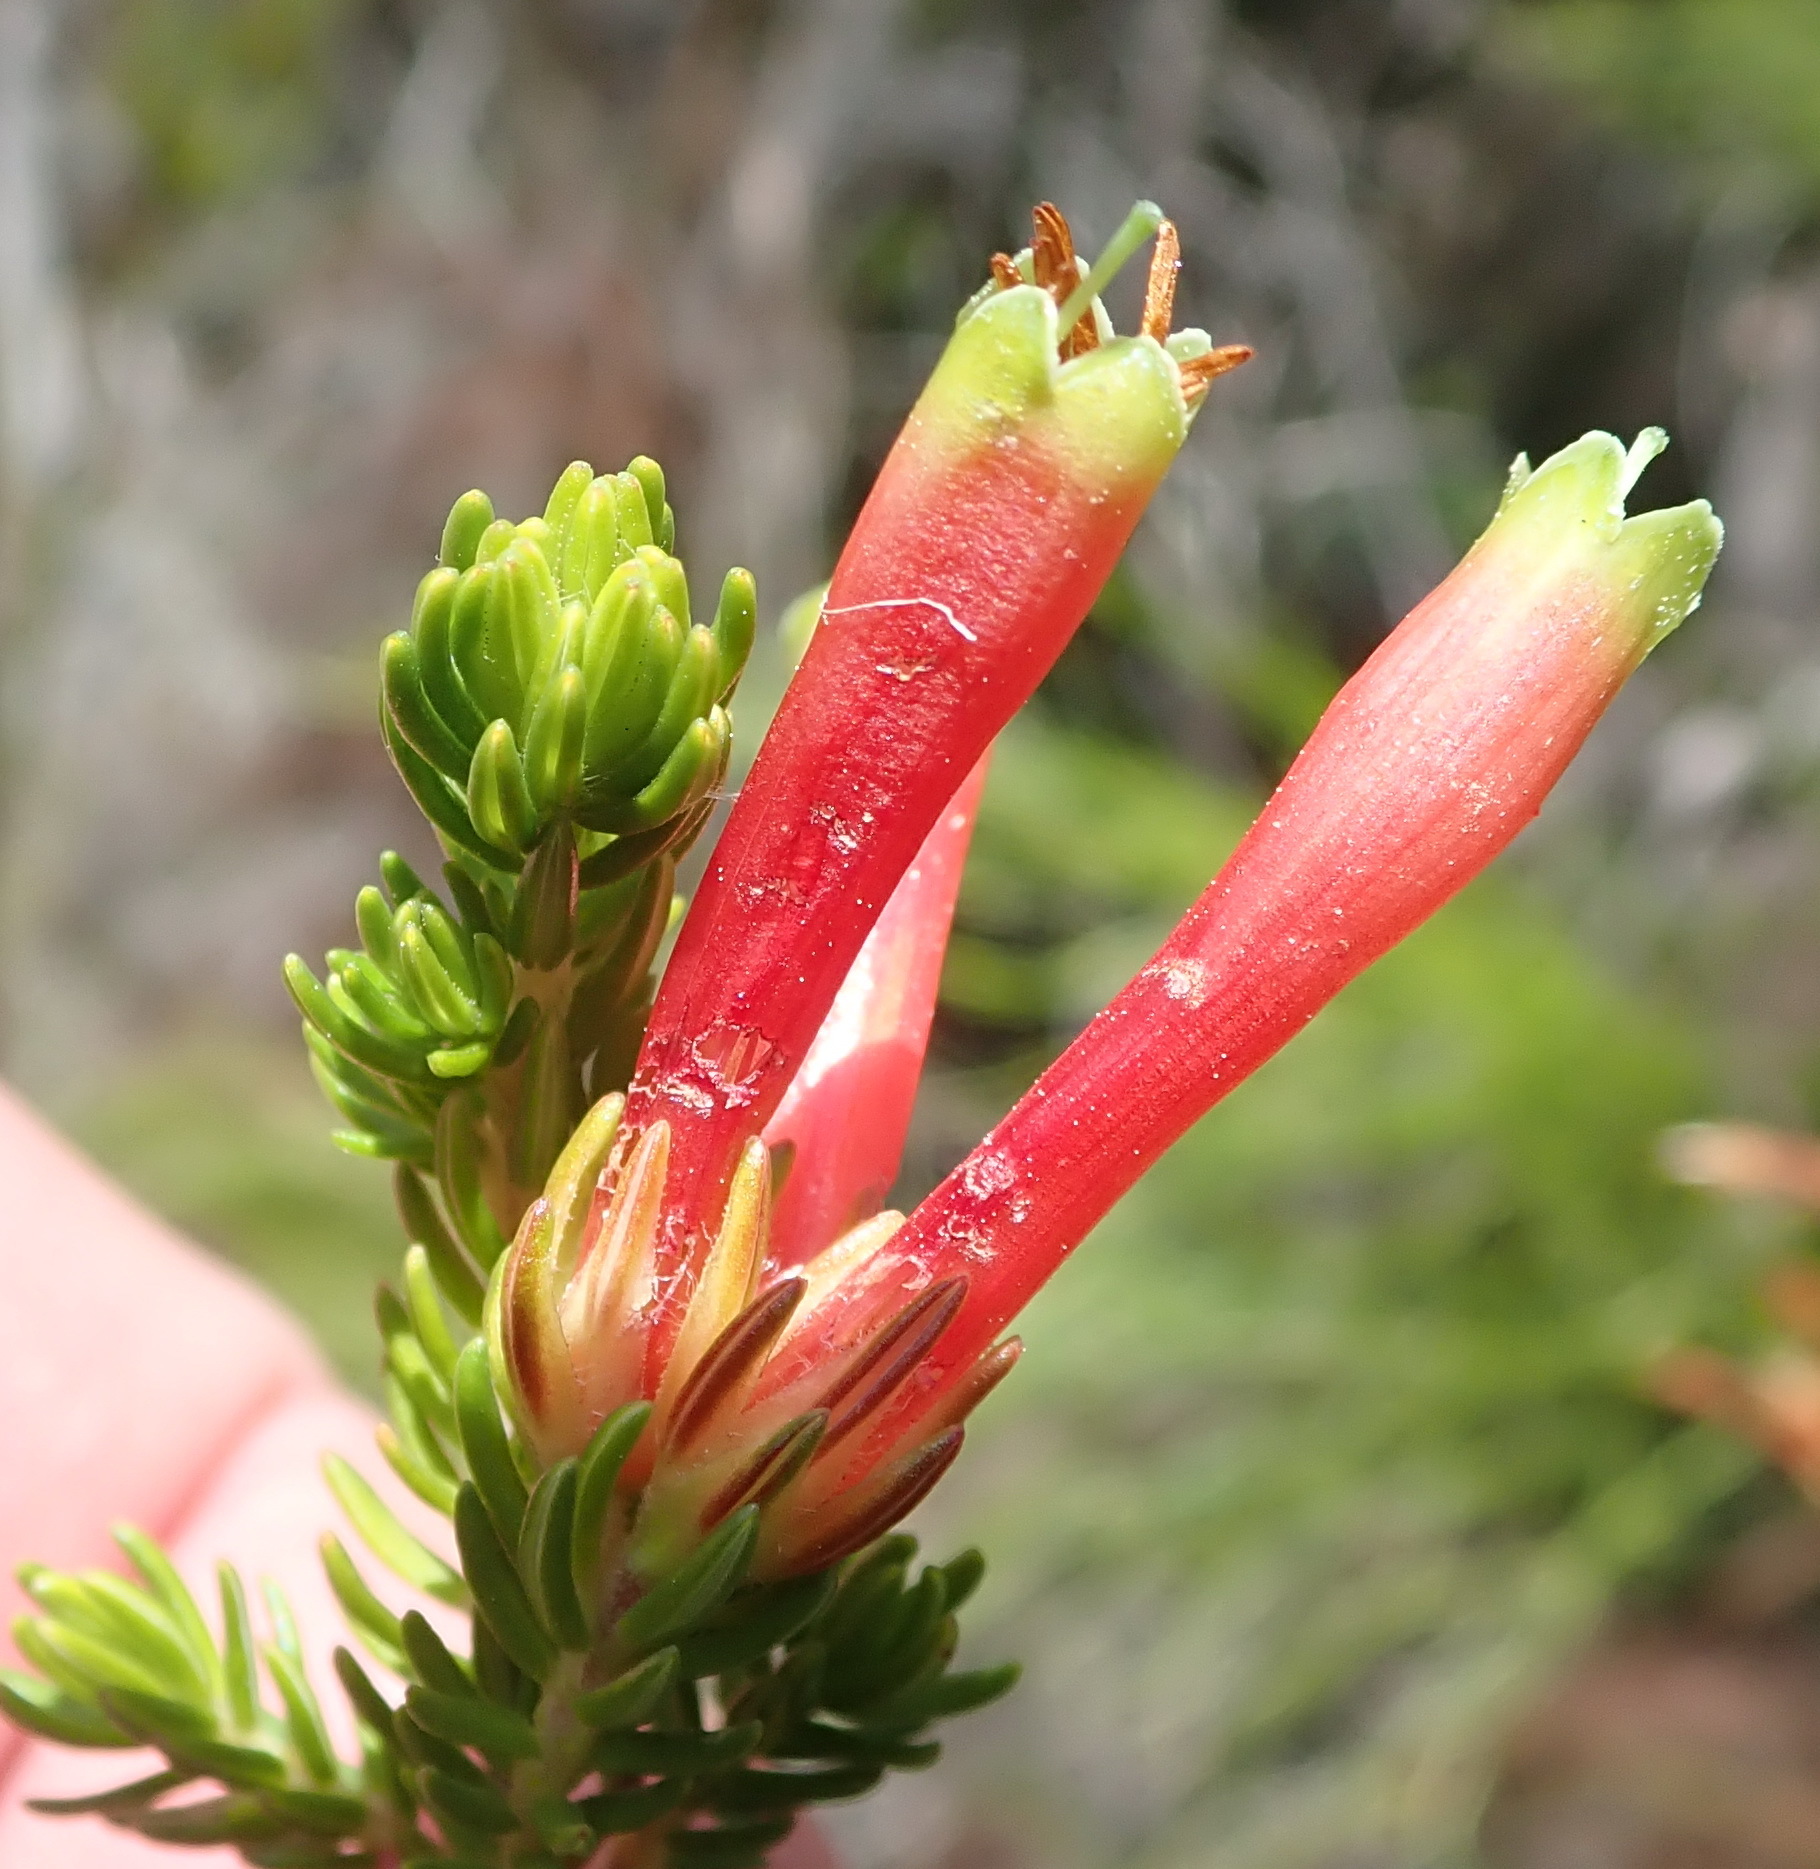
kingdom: Plantae
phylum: Tracheophyta
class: Magnoliopsida
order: Ericales
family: Ericaceae
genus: Erica
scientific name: Erica discolor
